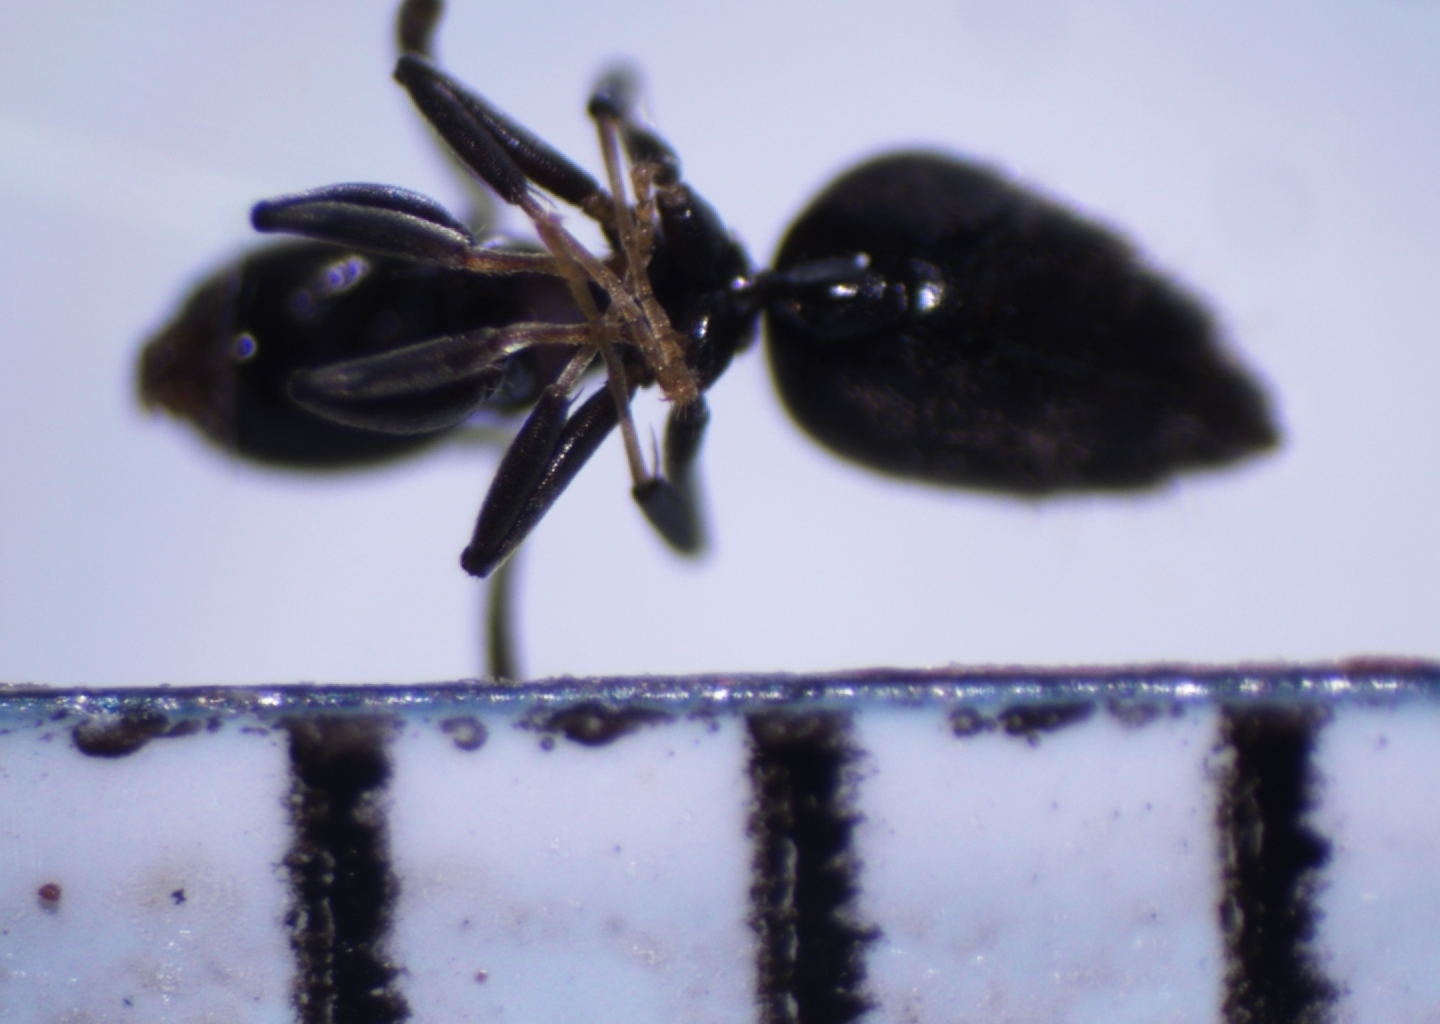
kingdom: Animalia
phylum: Arthropoda
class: Insecta
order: Hymenoptera
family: Formicidae
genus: Technomyrmex
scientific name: Technomyrmex vitiensis
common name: Ant
